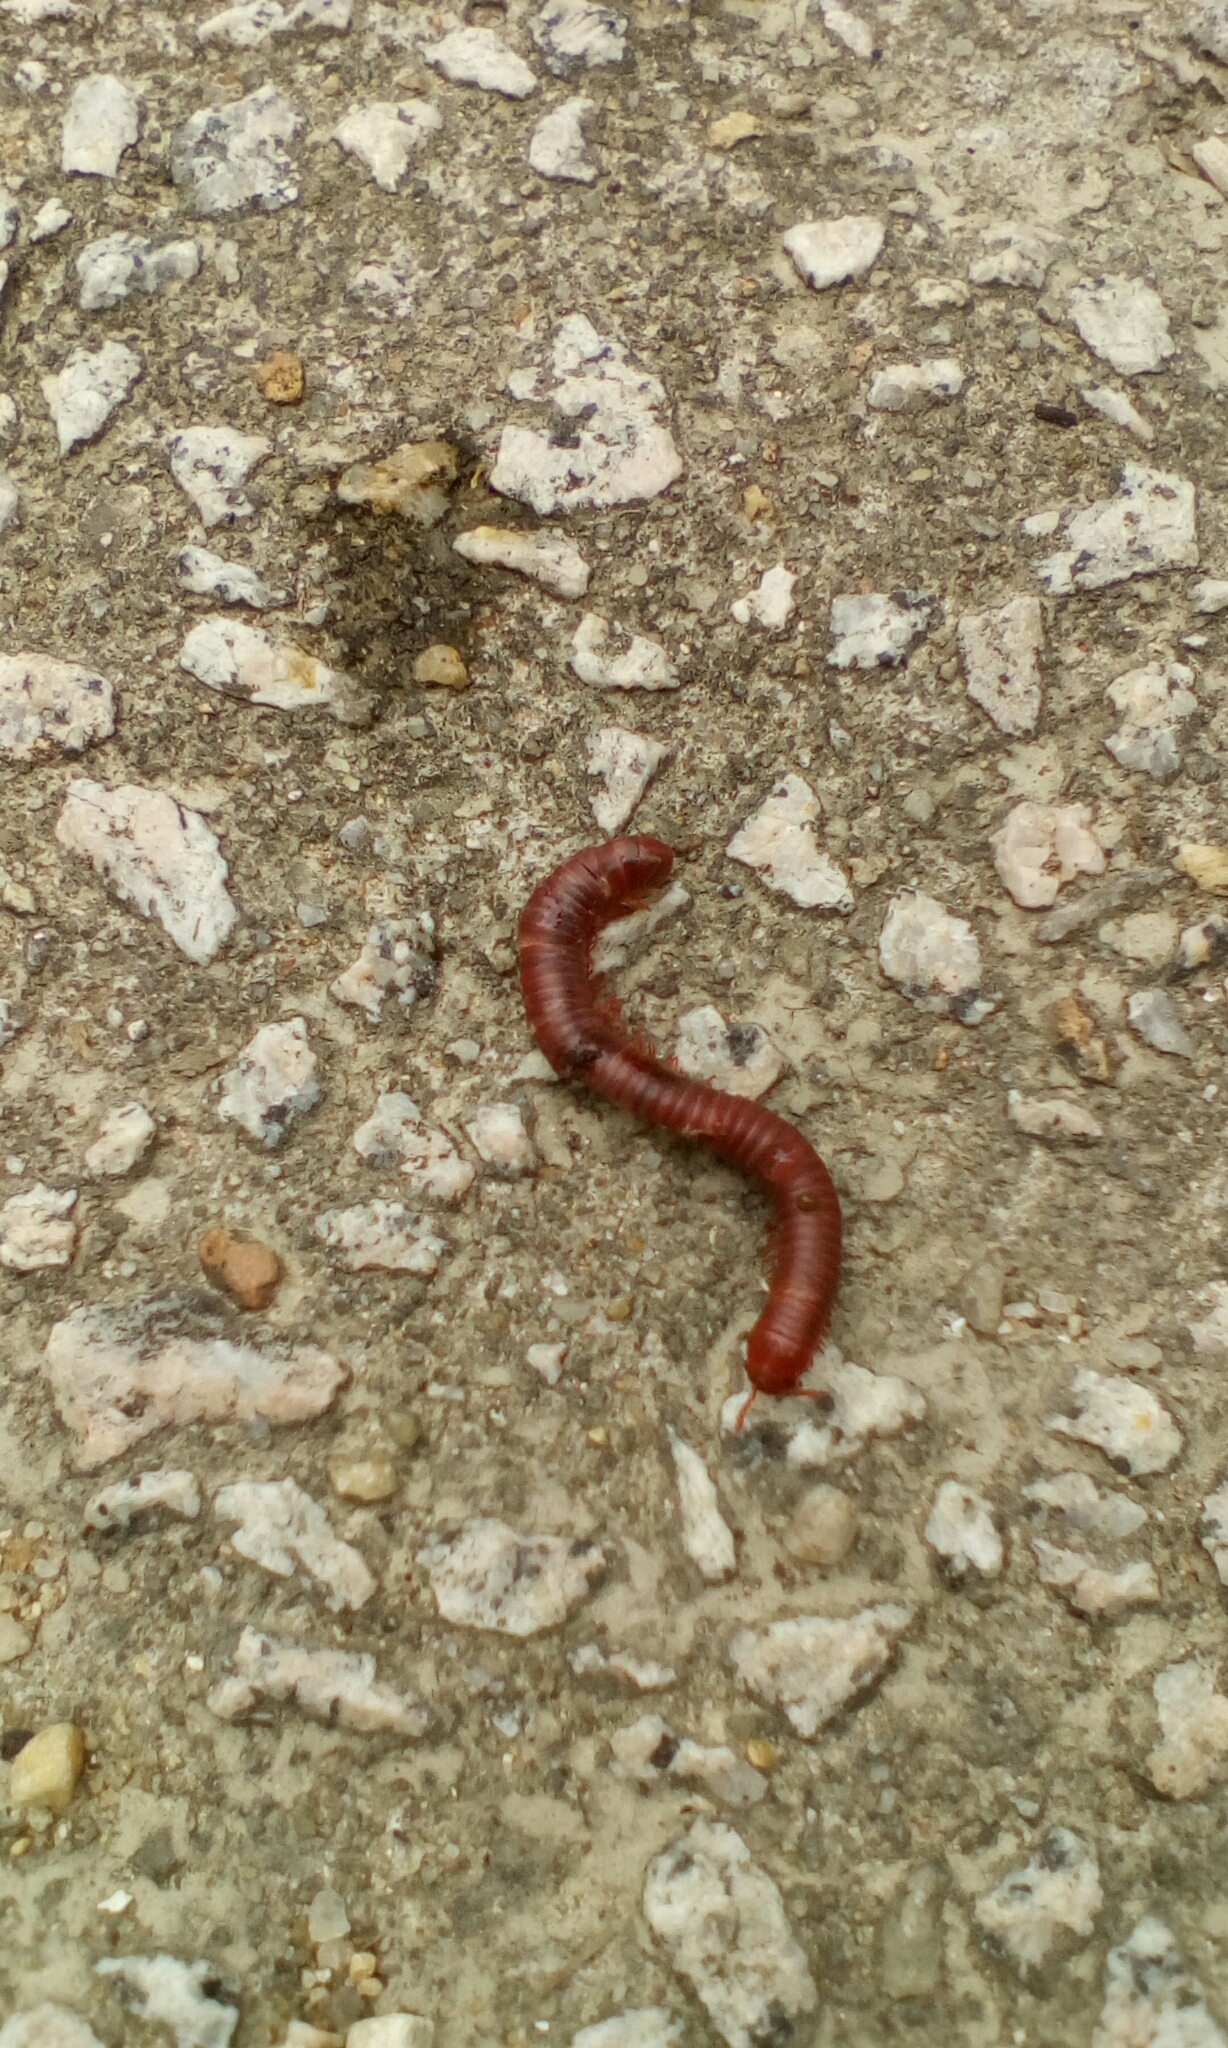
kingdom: Animalia
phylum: Arthropoda
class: Diplopoda
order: Spirobolida
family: Pachybolidae
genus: Trigoniulus
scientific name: Trigoniulus corallinus
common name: Millipede
